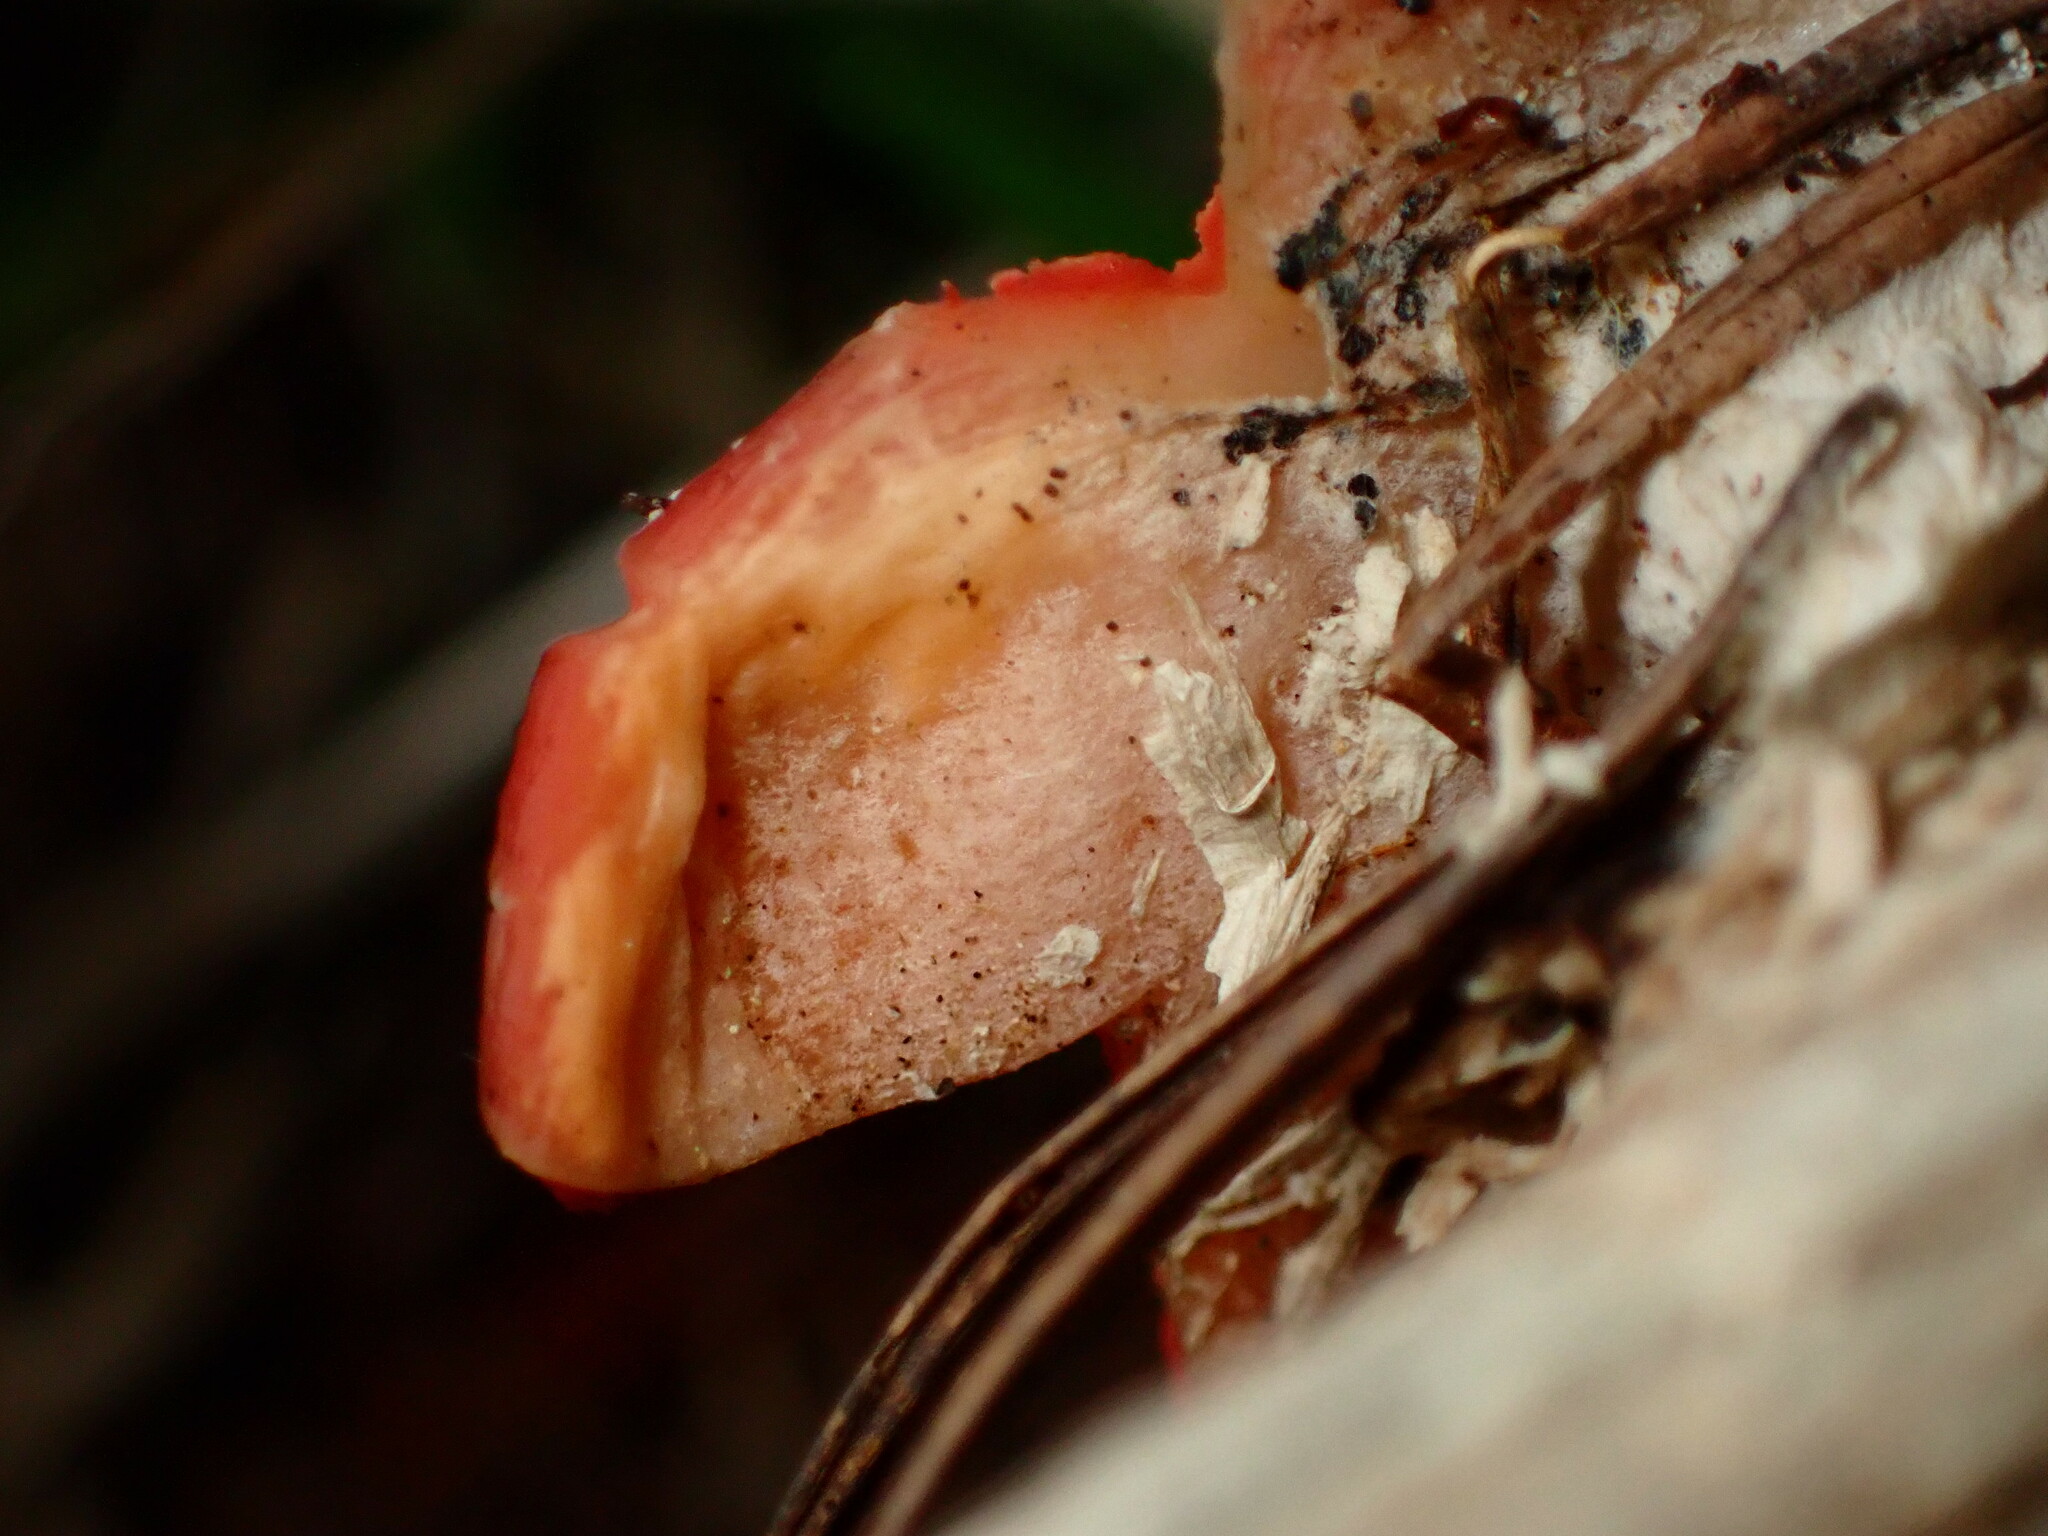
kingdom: Fungi
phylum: Ascomycota
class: Pezizomycetes
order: Pezizales
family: Sarcoscyphaceae
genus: Sarcoscypha
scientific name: Sarcoscypha coccinea
